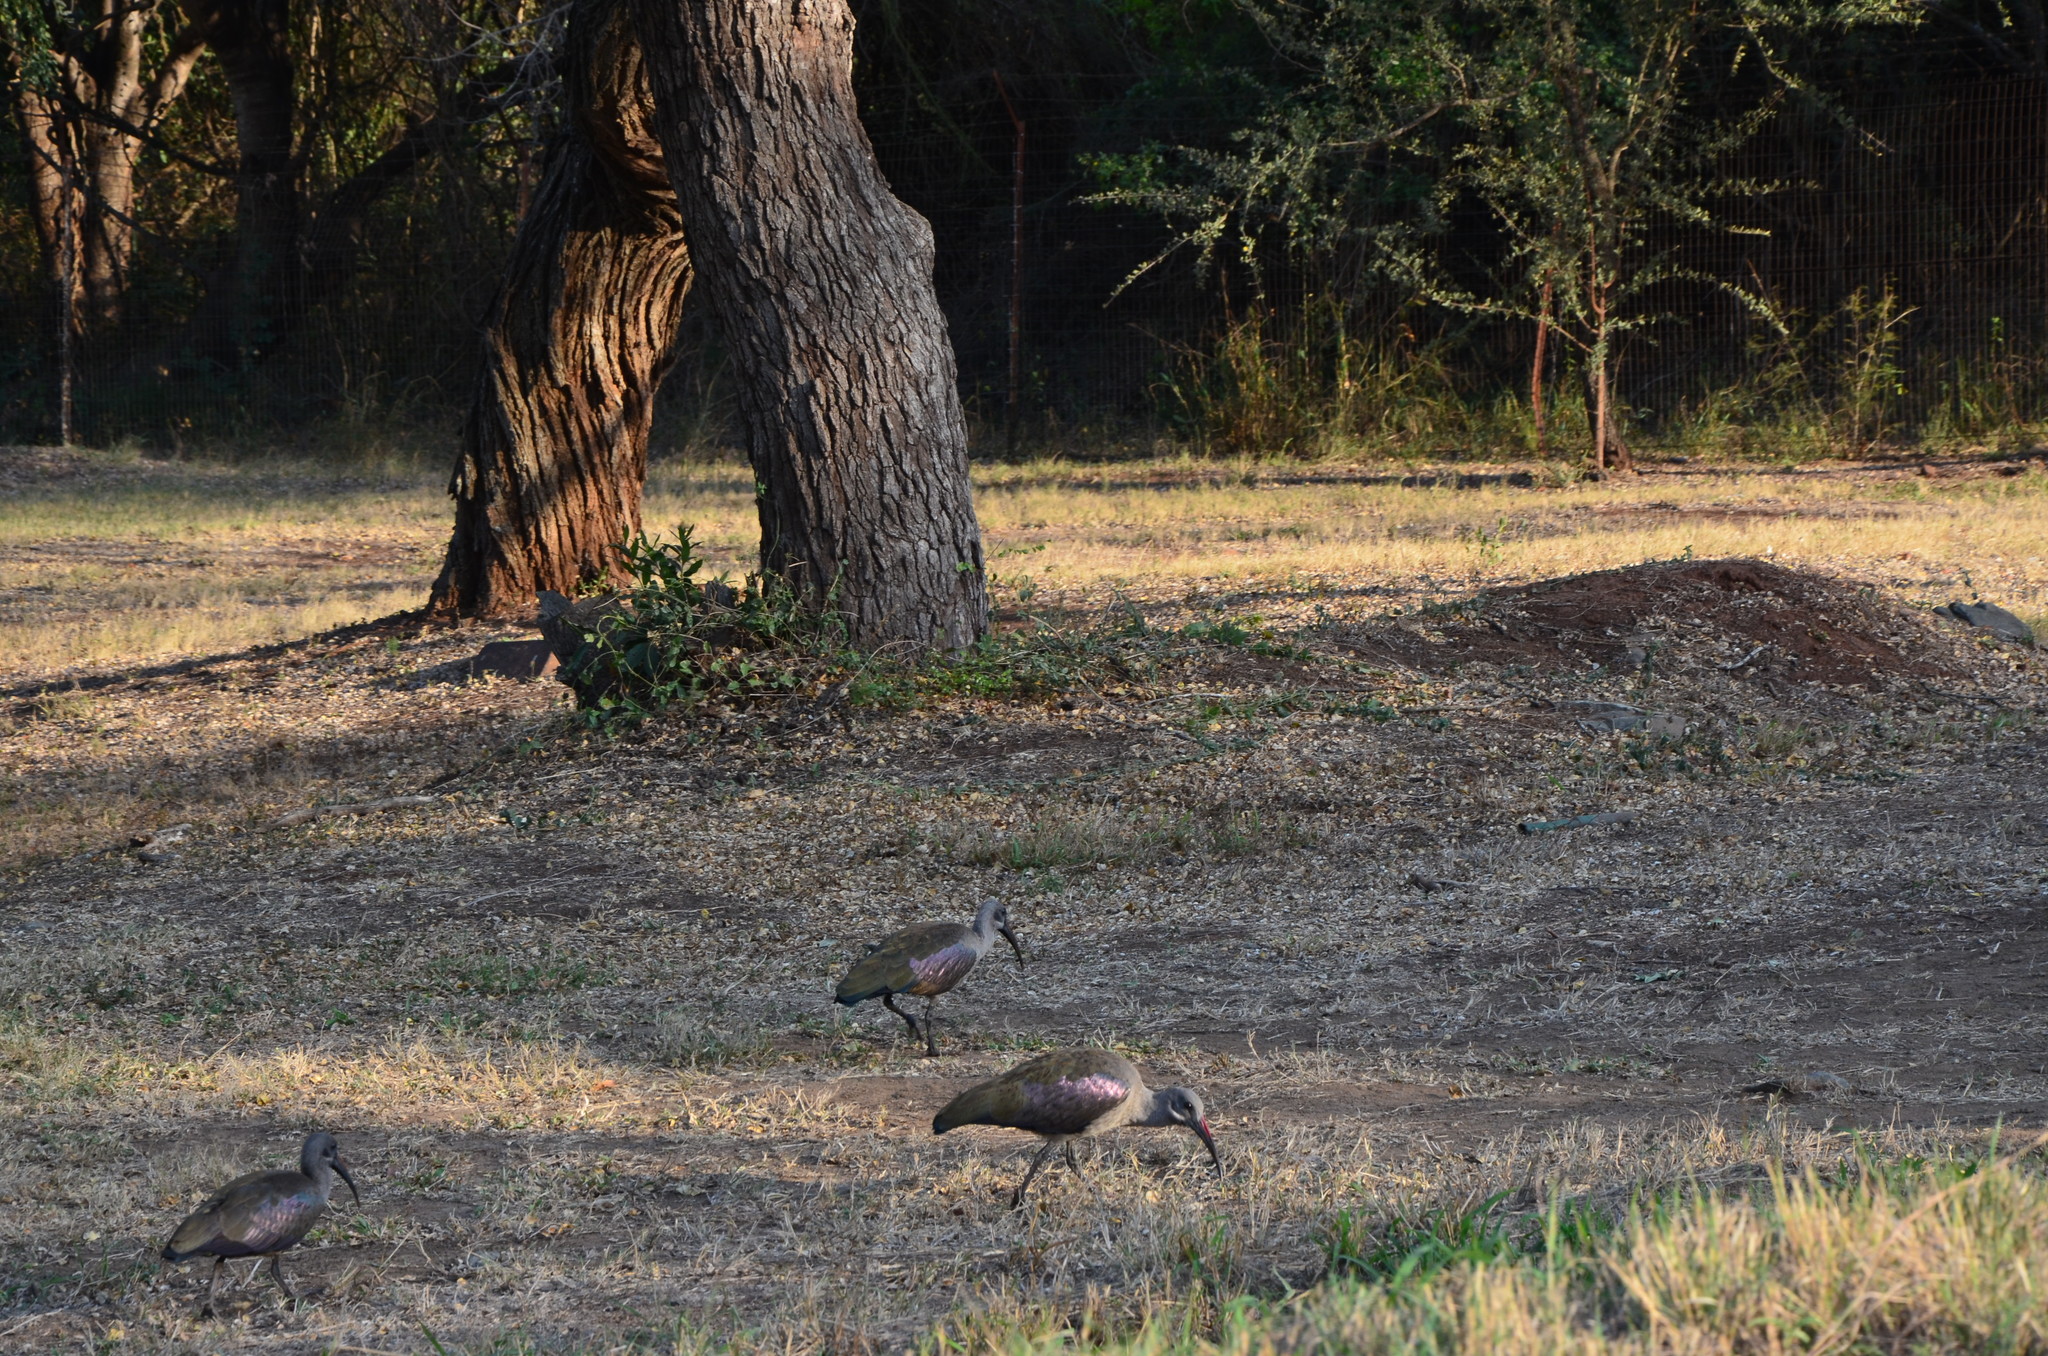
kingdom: Animalia
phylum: Chordata
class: Aves
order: Pelecaniformes
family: Threskiornithidae
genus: Bostrychia
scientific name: Bostrychia hagedash
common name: Hadada ibis
